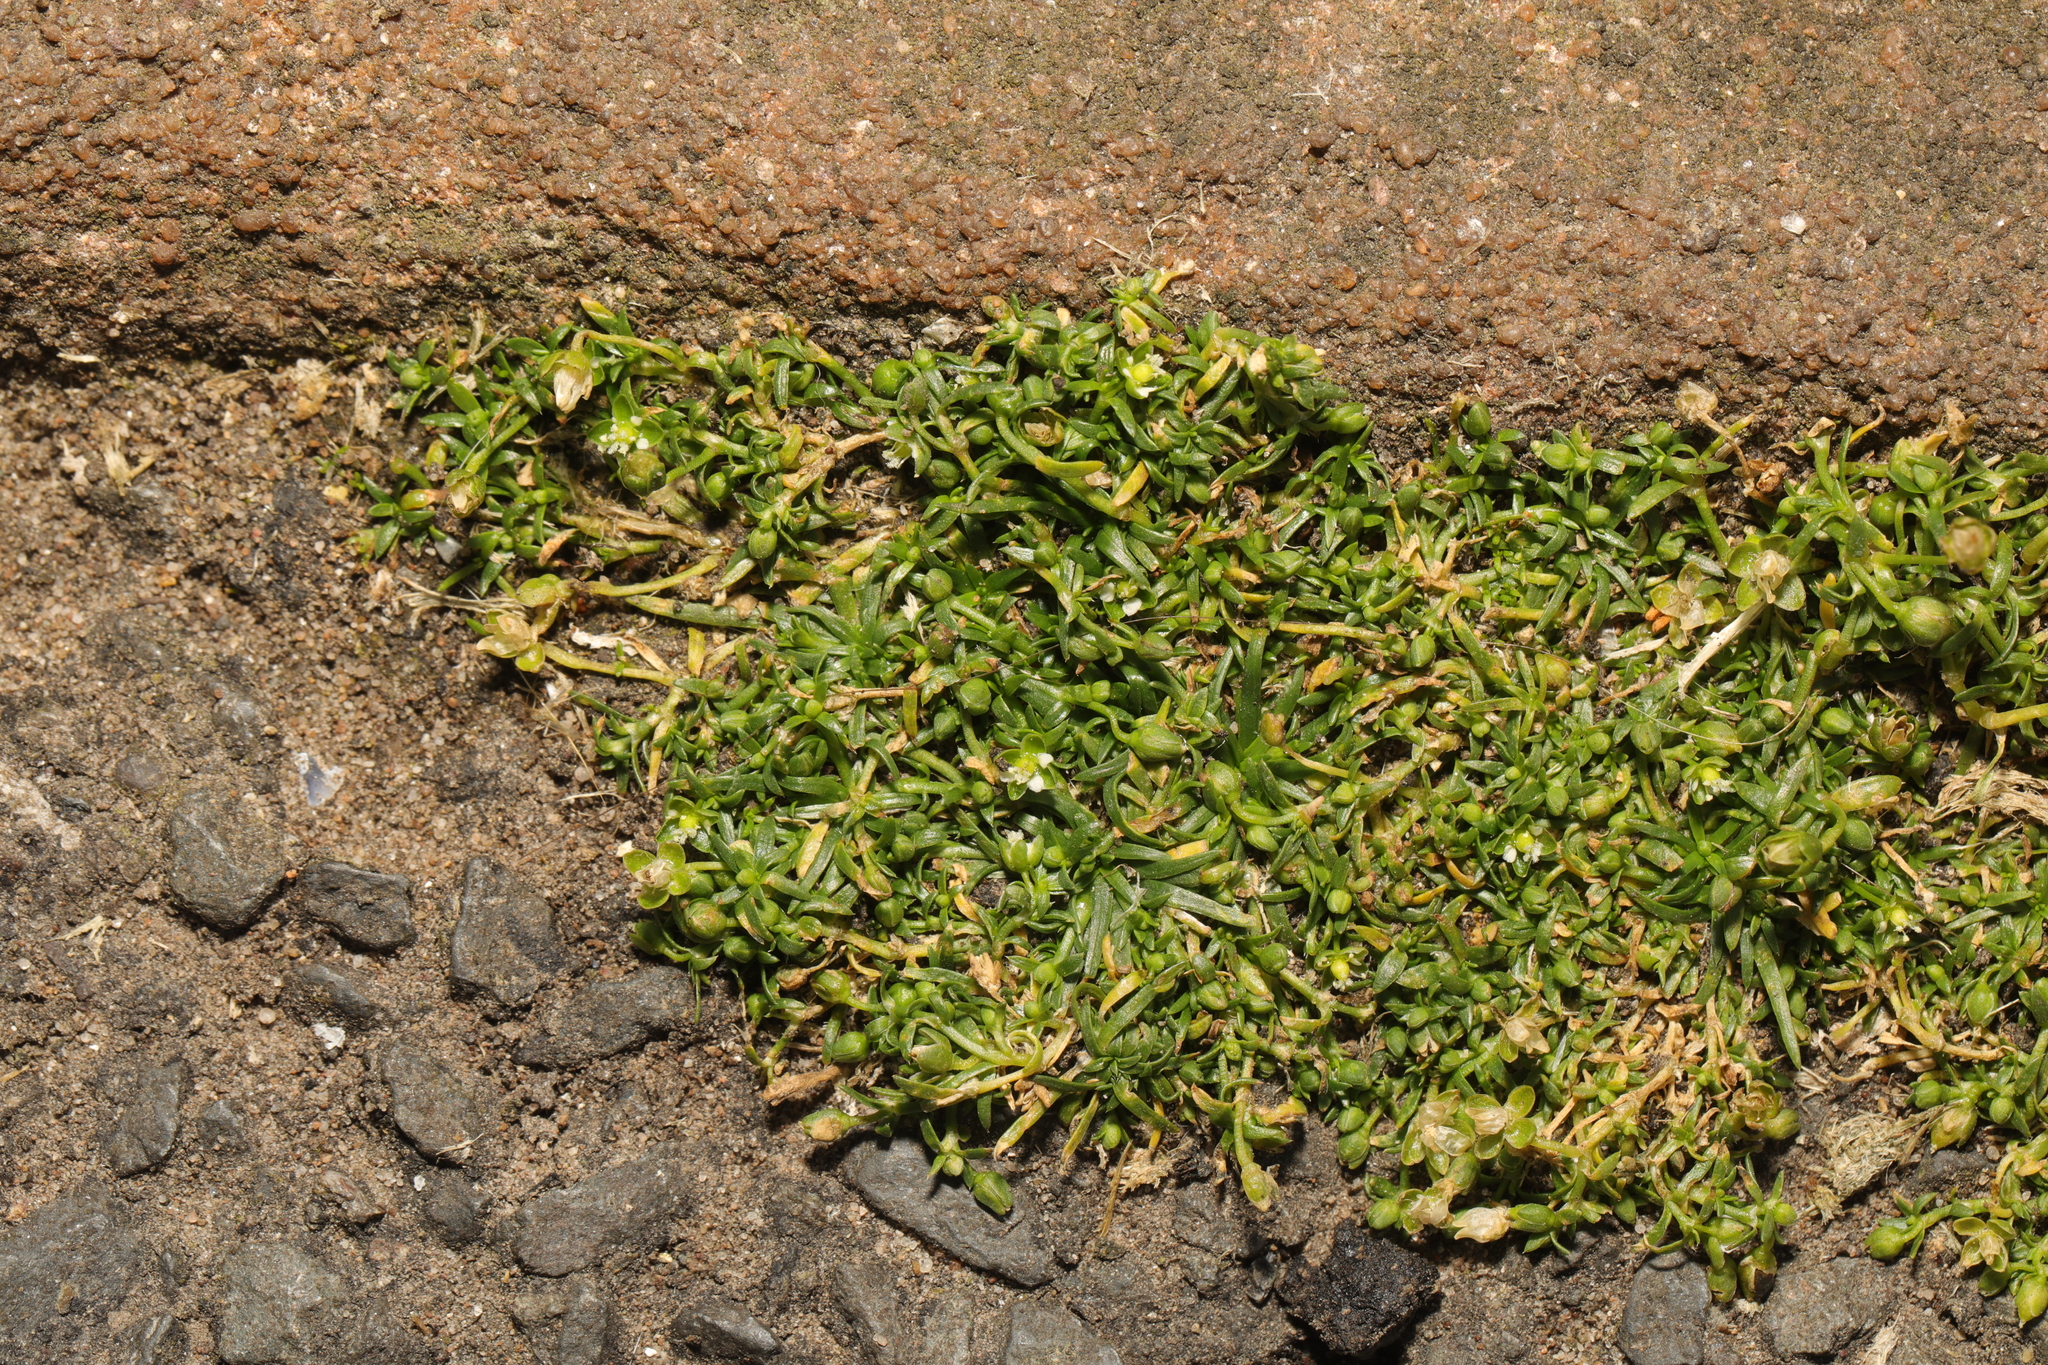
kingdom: Plantae
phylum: Tracheophyta
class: Magnoliopsida
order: Caryophyllales
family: Caryophyllaceae
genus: Sagina
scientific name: Sagina procumbens
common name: Procumbent pearlwort
